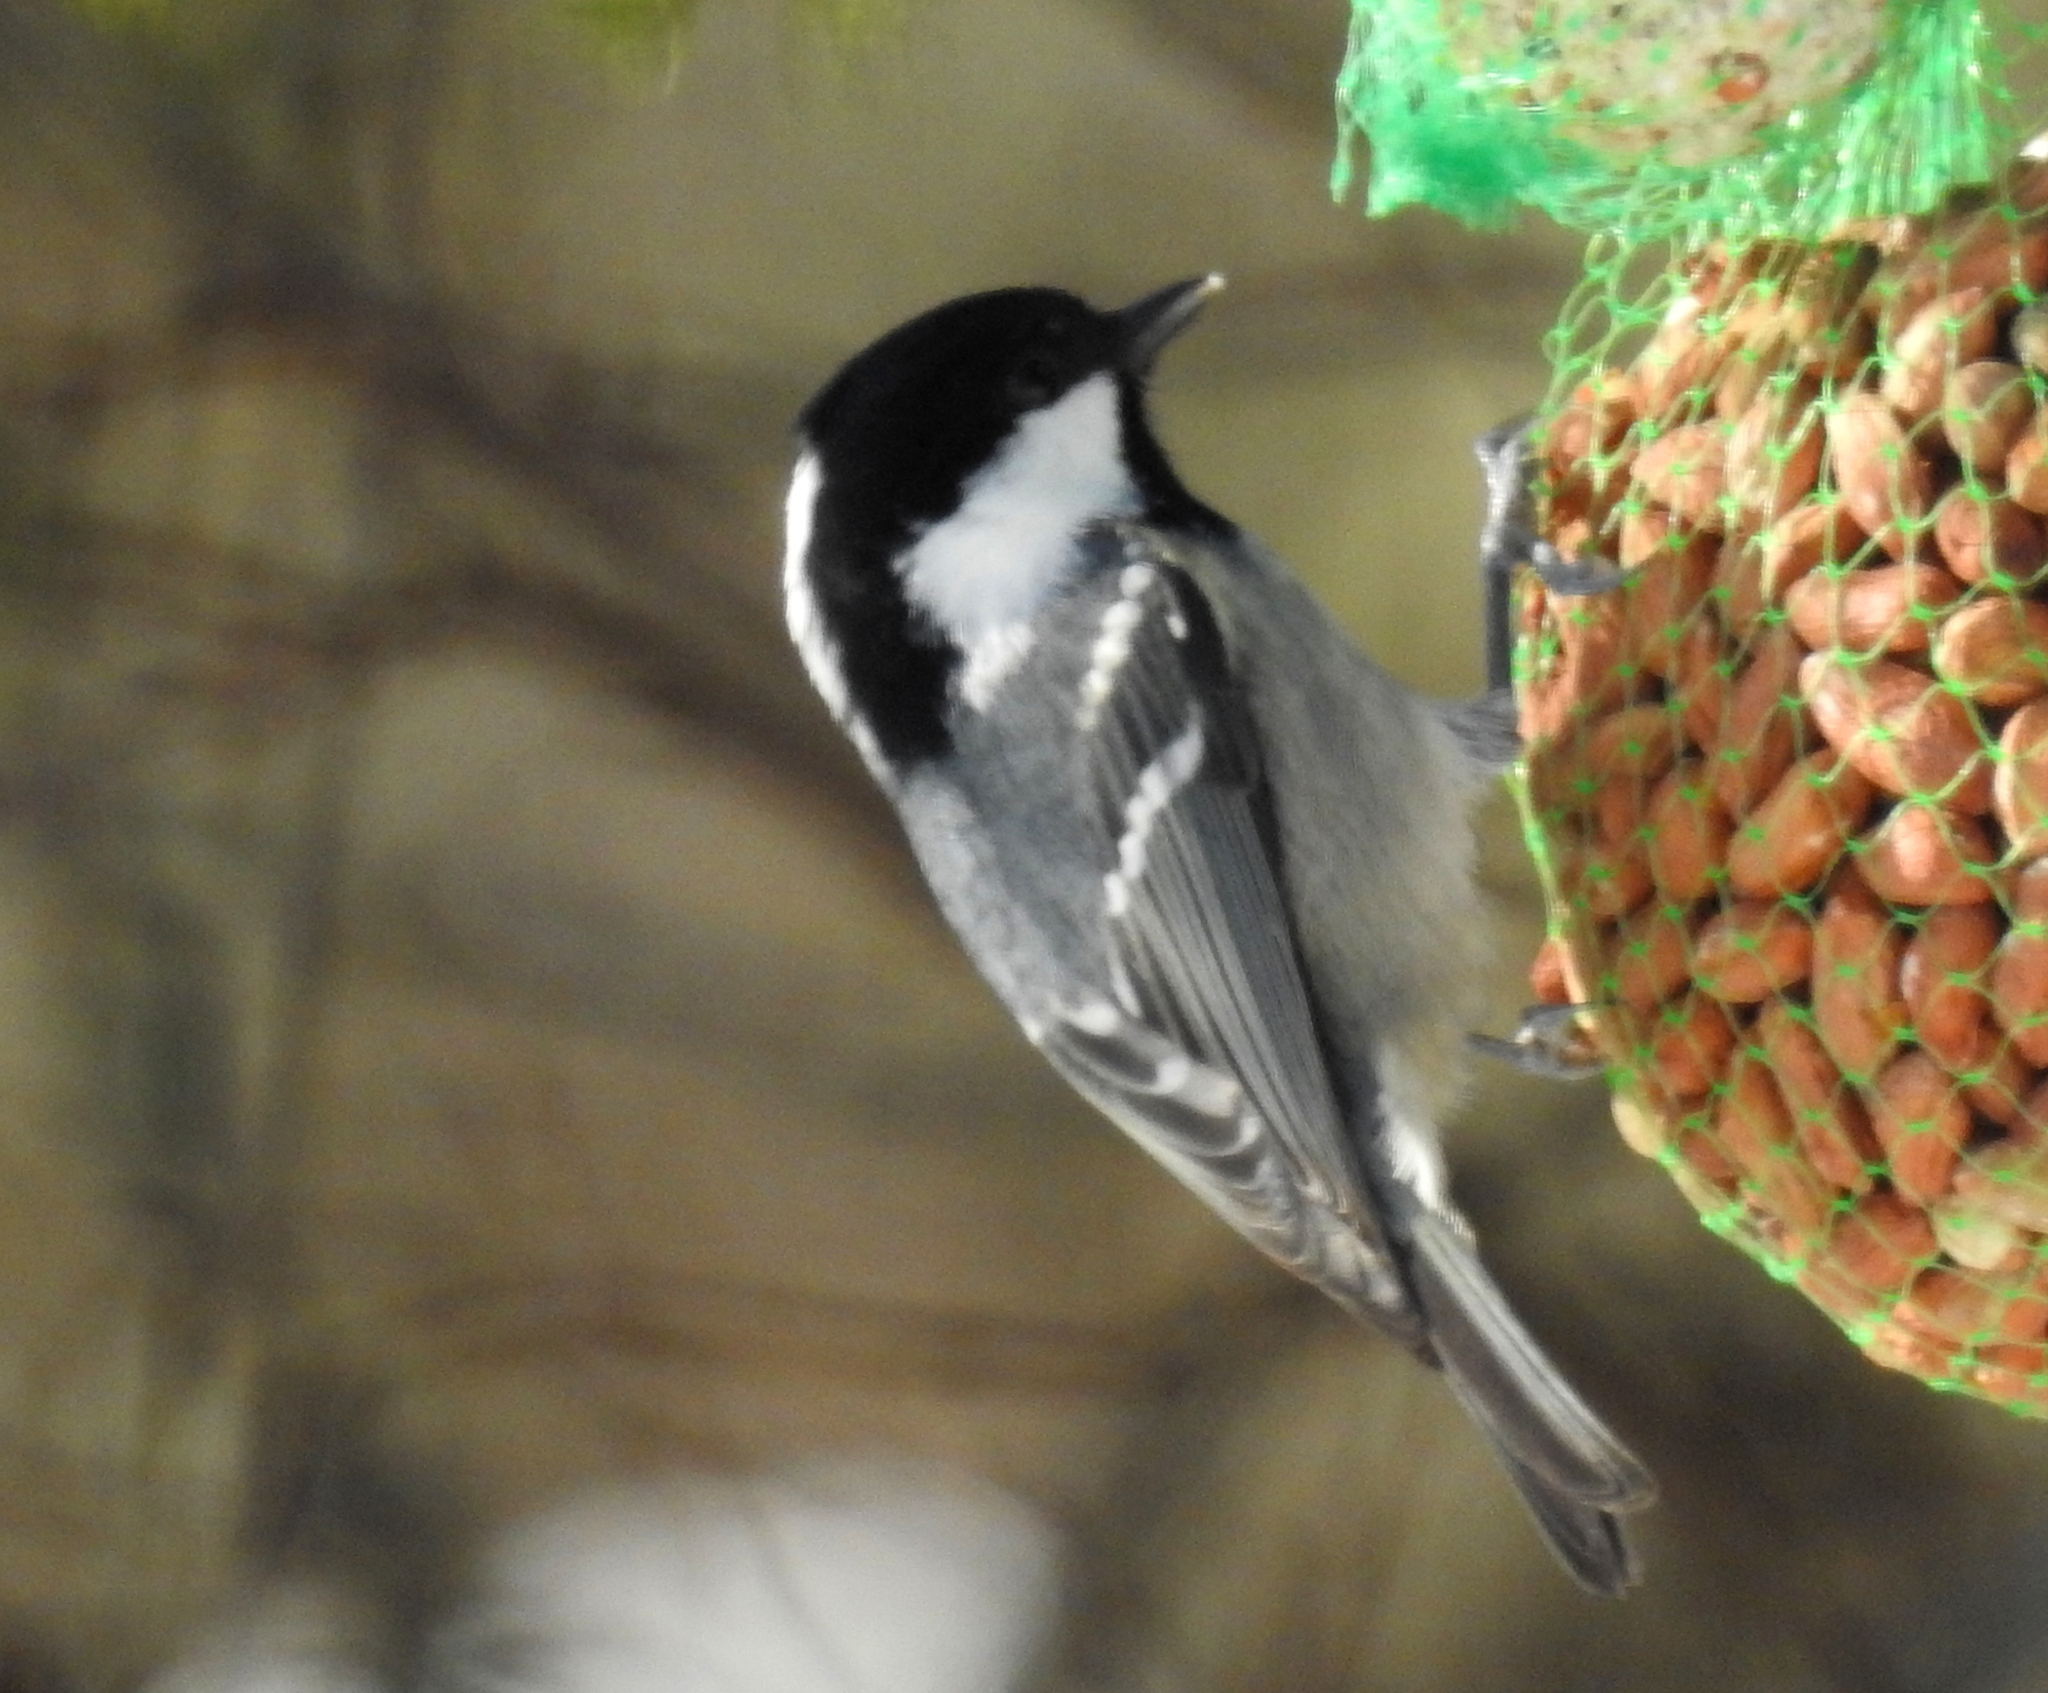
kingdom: Animalia
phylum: Chordata
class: Aves
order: Passeriformes
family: Paridae
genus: Periparus
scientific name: Periparus ater
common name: Coal tit
